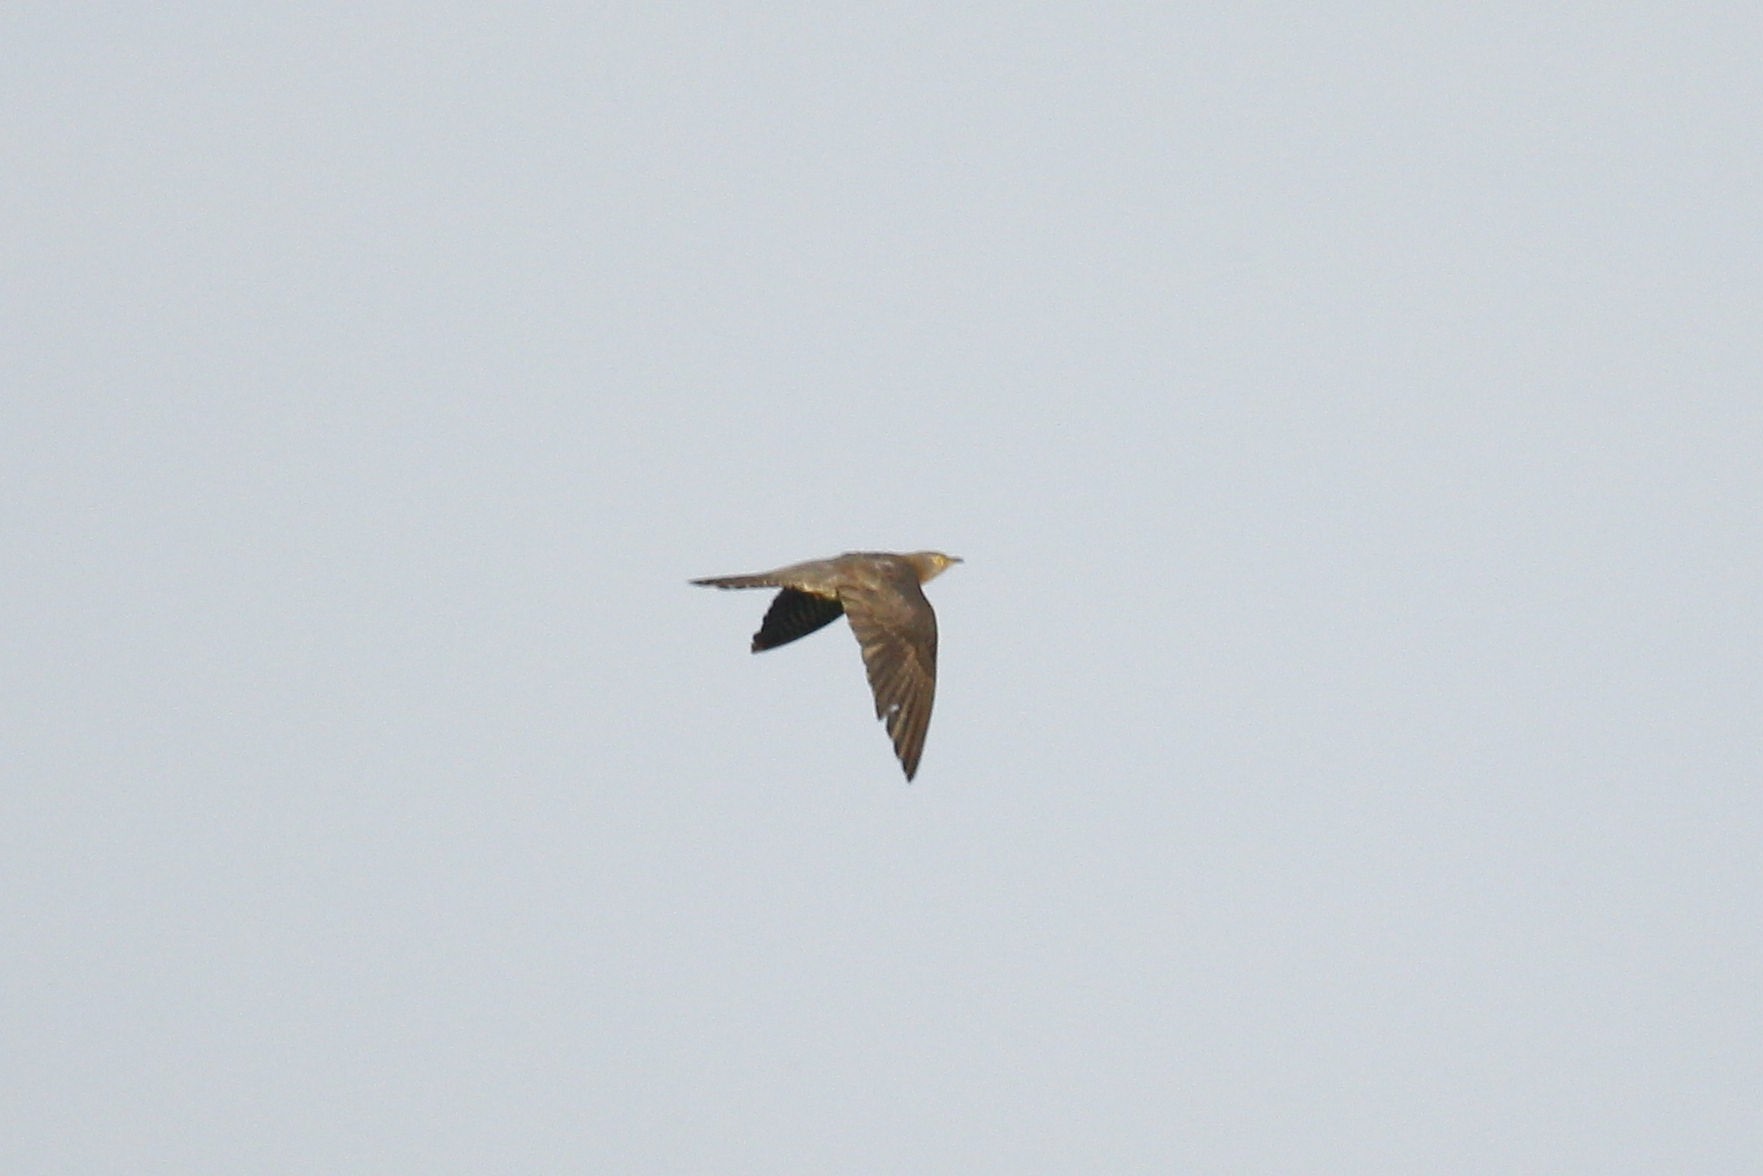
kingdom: Animalia
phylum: Chordata
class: Aves
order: Cuculiformes
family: Cuculidae
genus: Cuculus
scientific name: Cuculus canorus
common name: Common cuckoo
